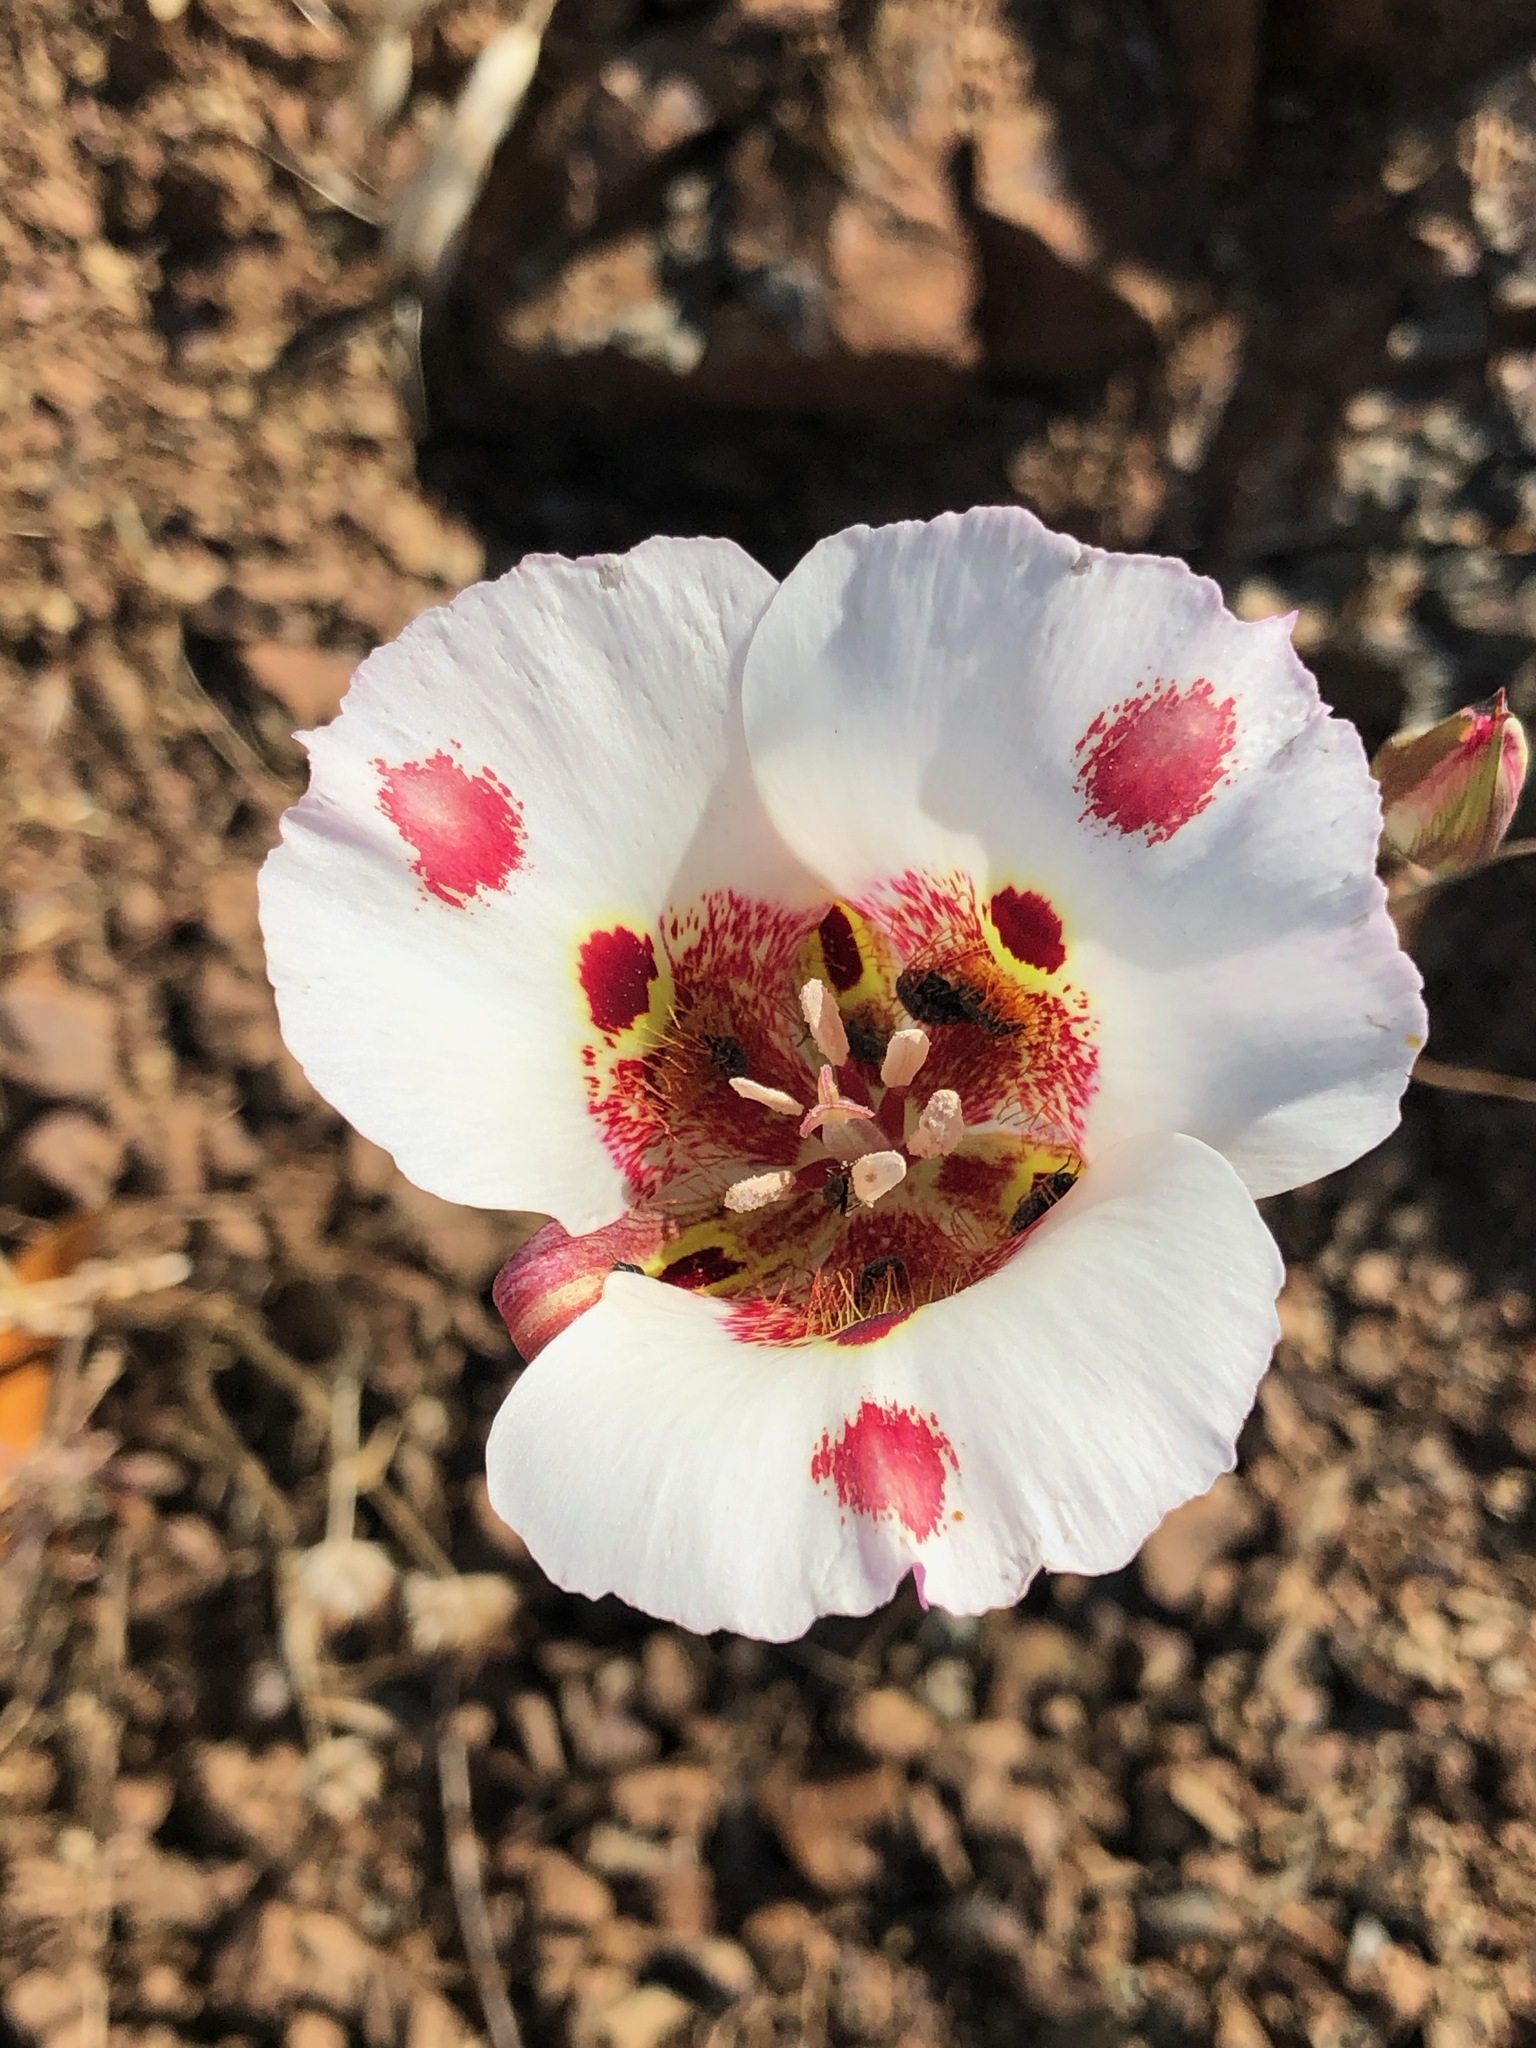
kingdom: Plantae
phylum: Tracheophyta
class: Liliopsida
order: Liliales
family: Liliaceae
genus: Calochortus
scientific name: Calochortus venustus
